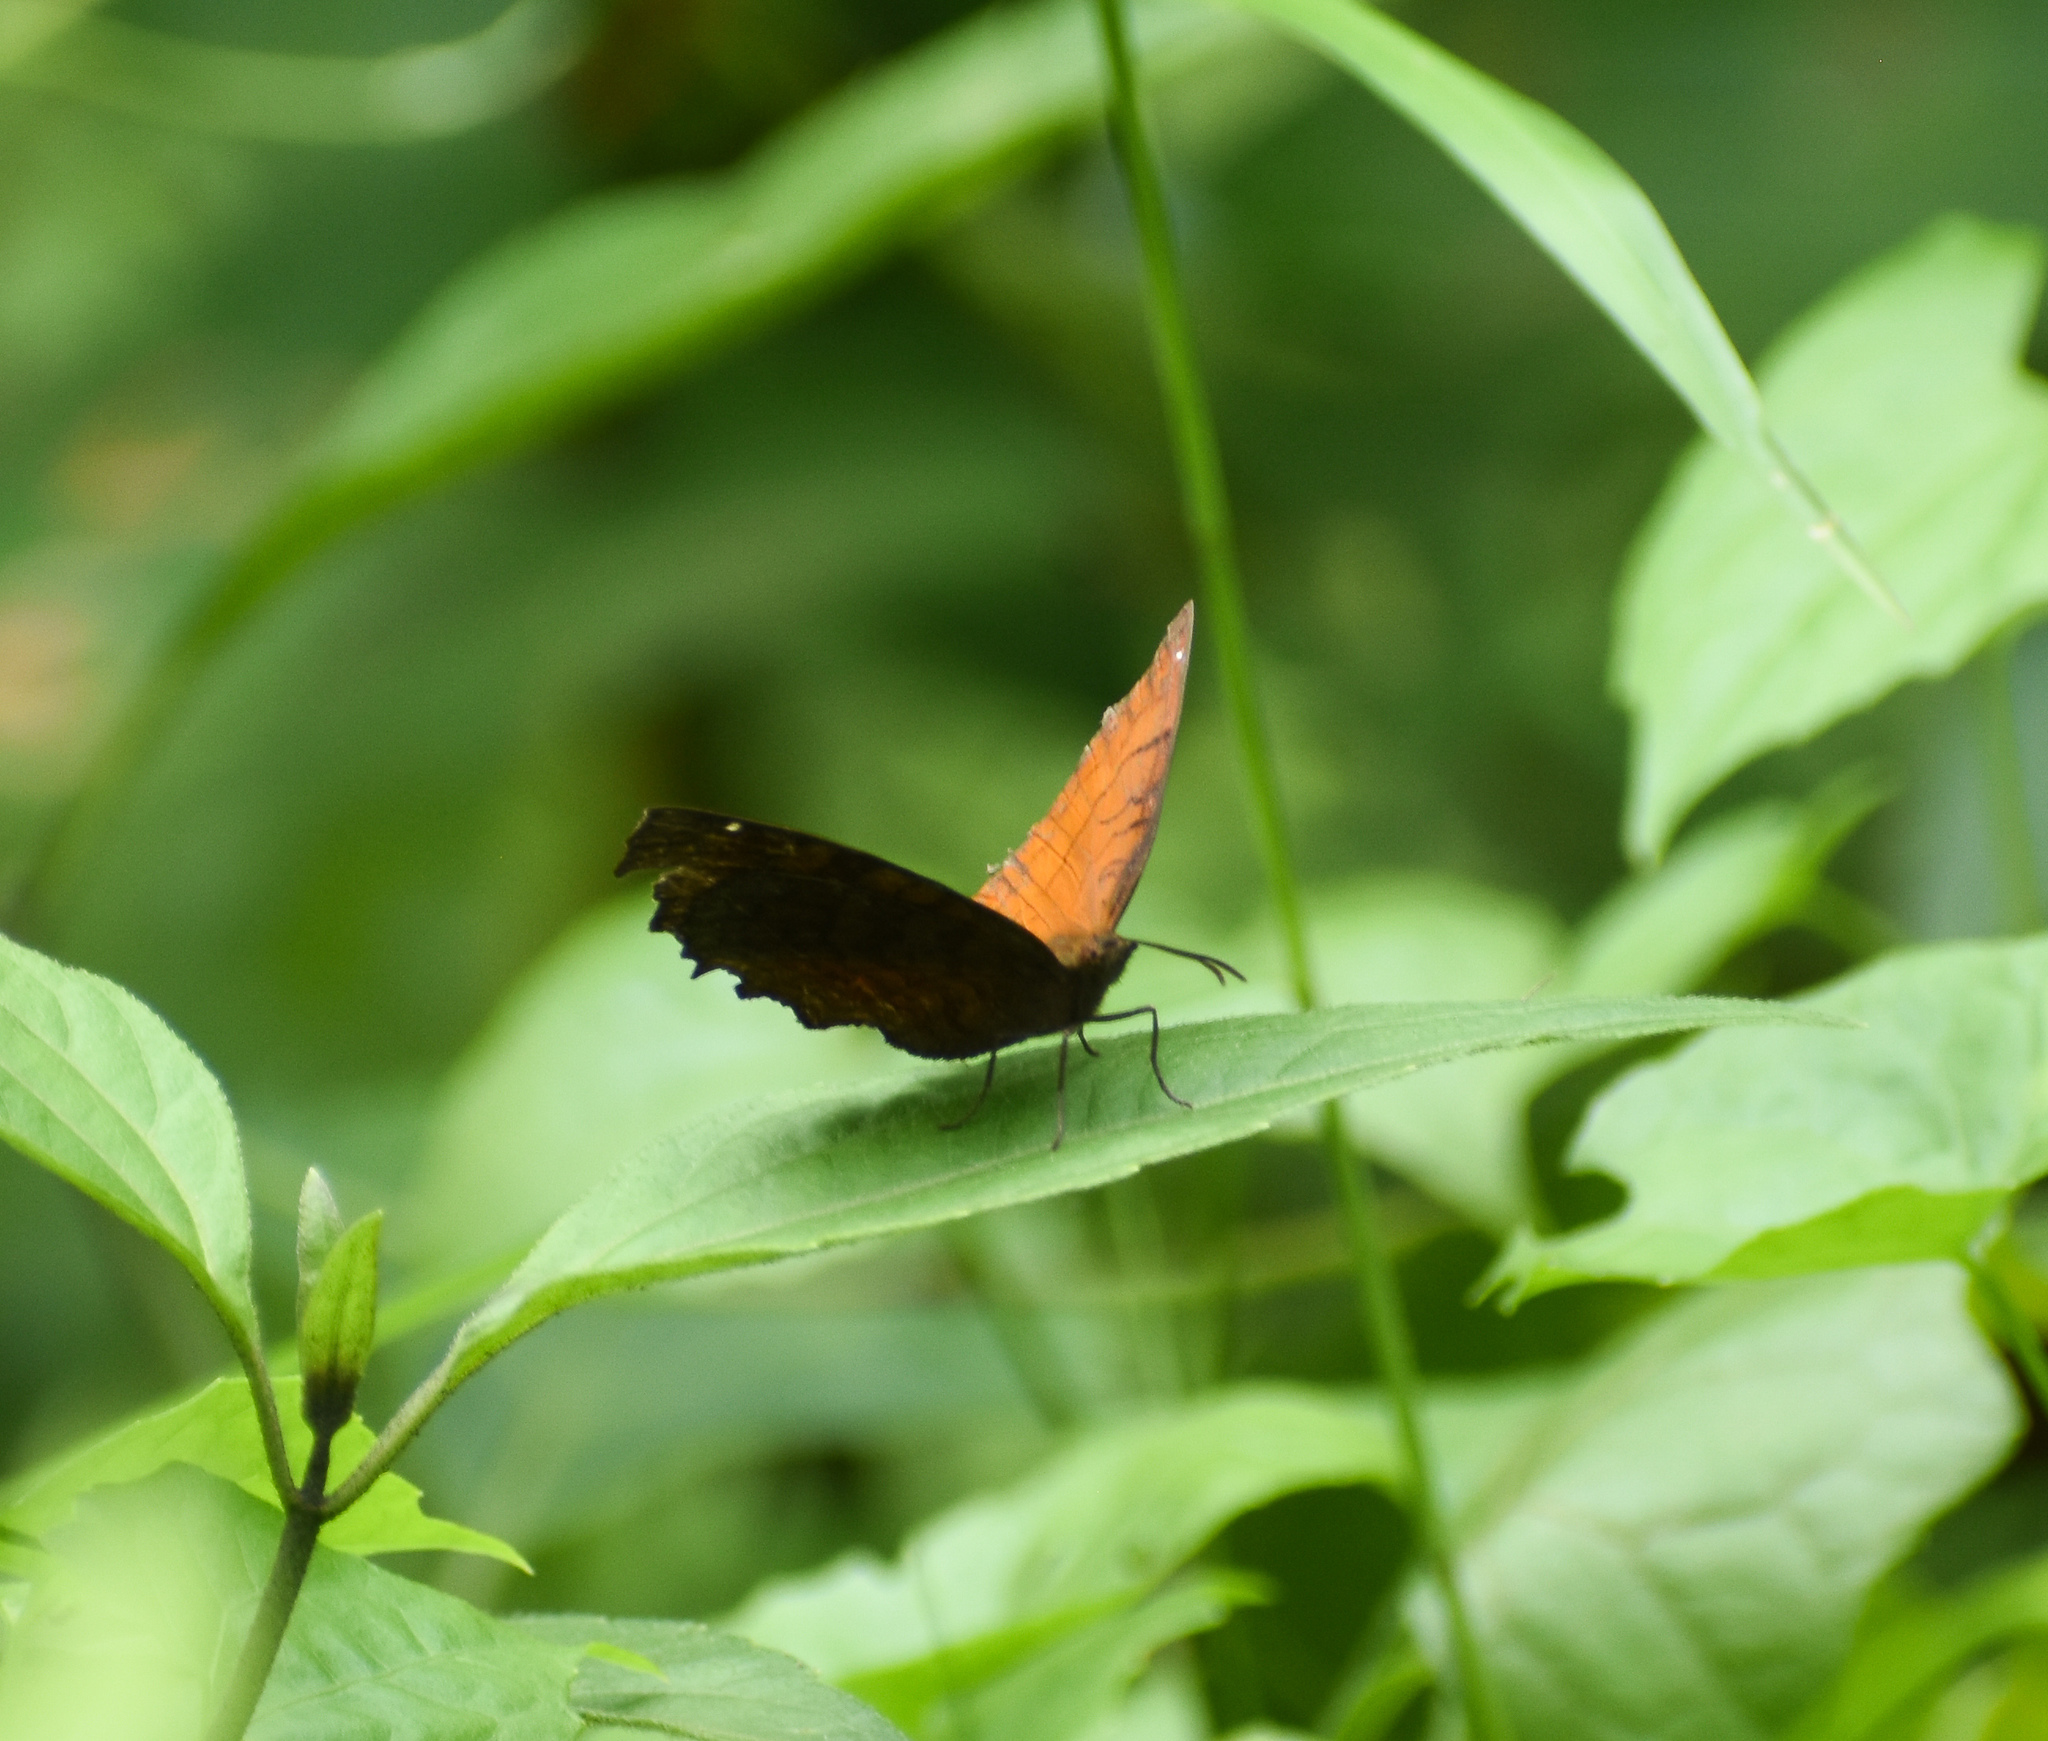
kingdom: Animalia
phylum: Arthropoda
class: Insecta
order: Lepidoptera
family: Nymphalidae
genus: Ariadne
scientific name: Ariadne ariadne
